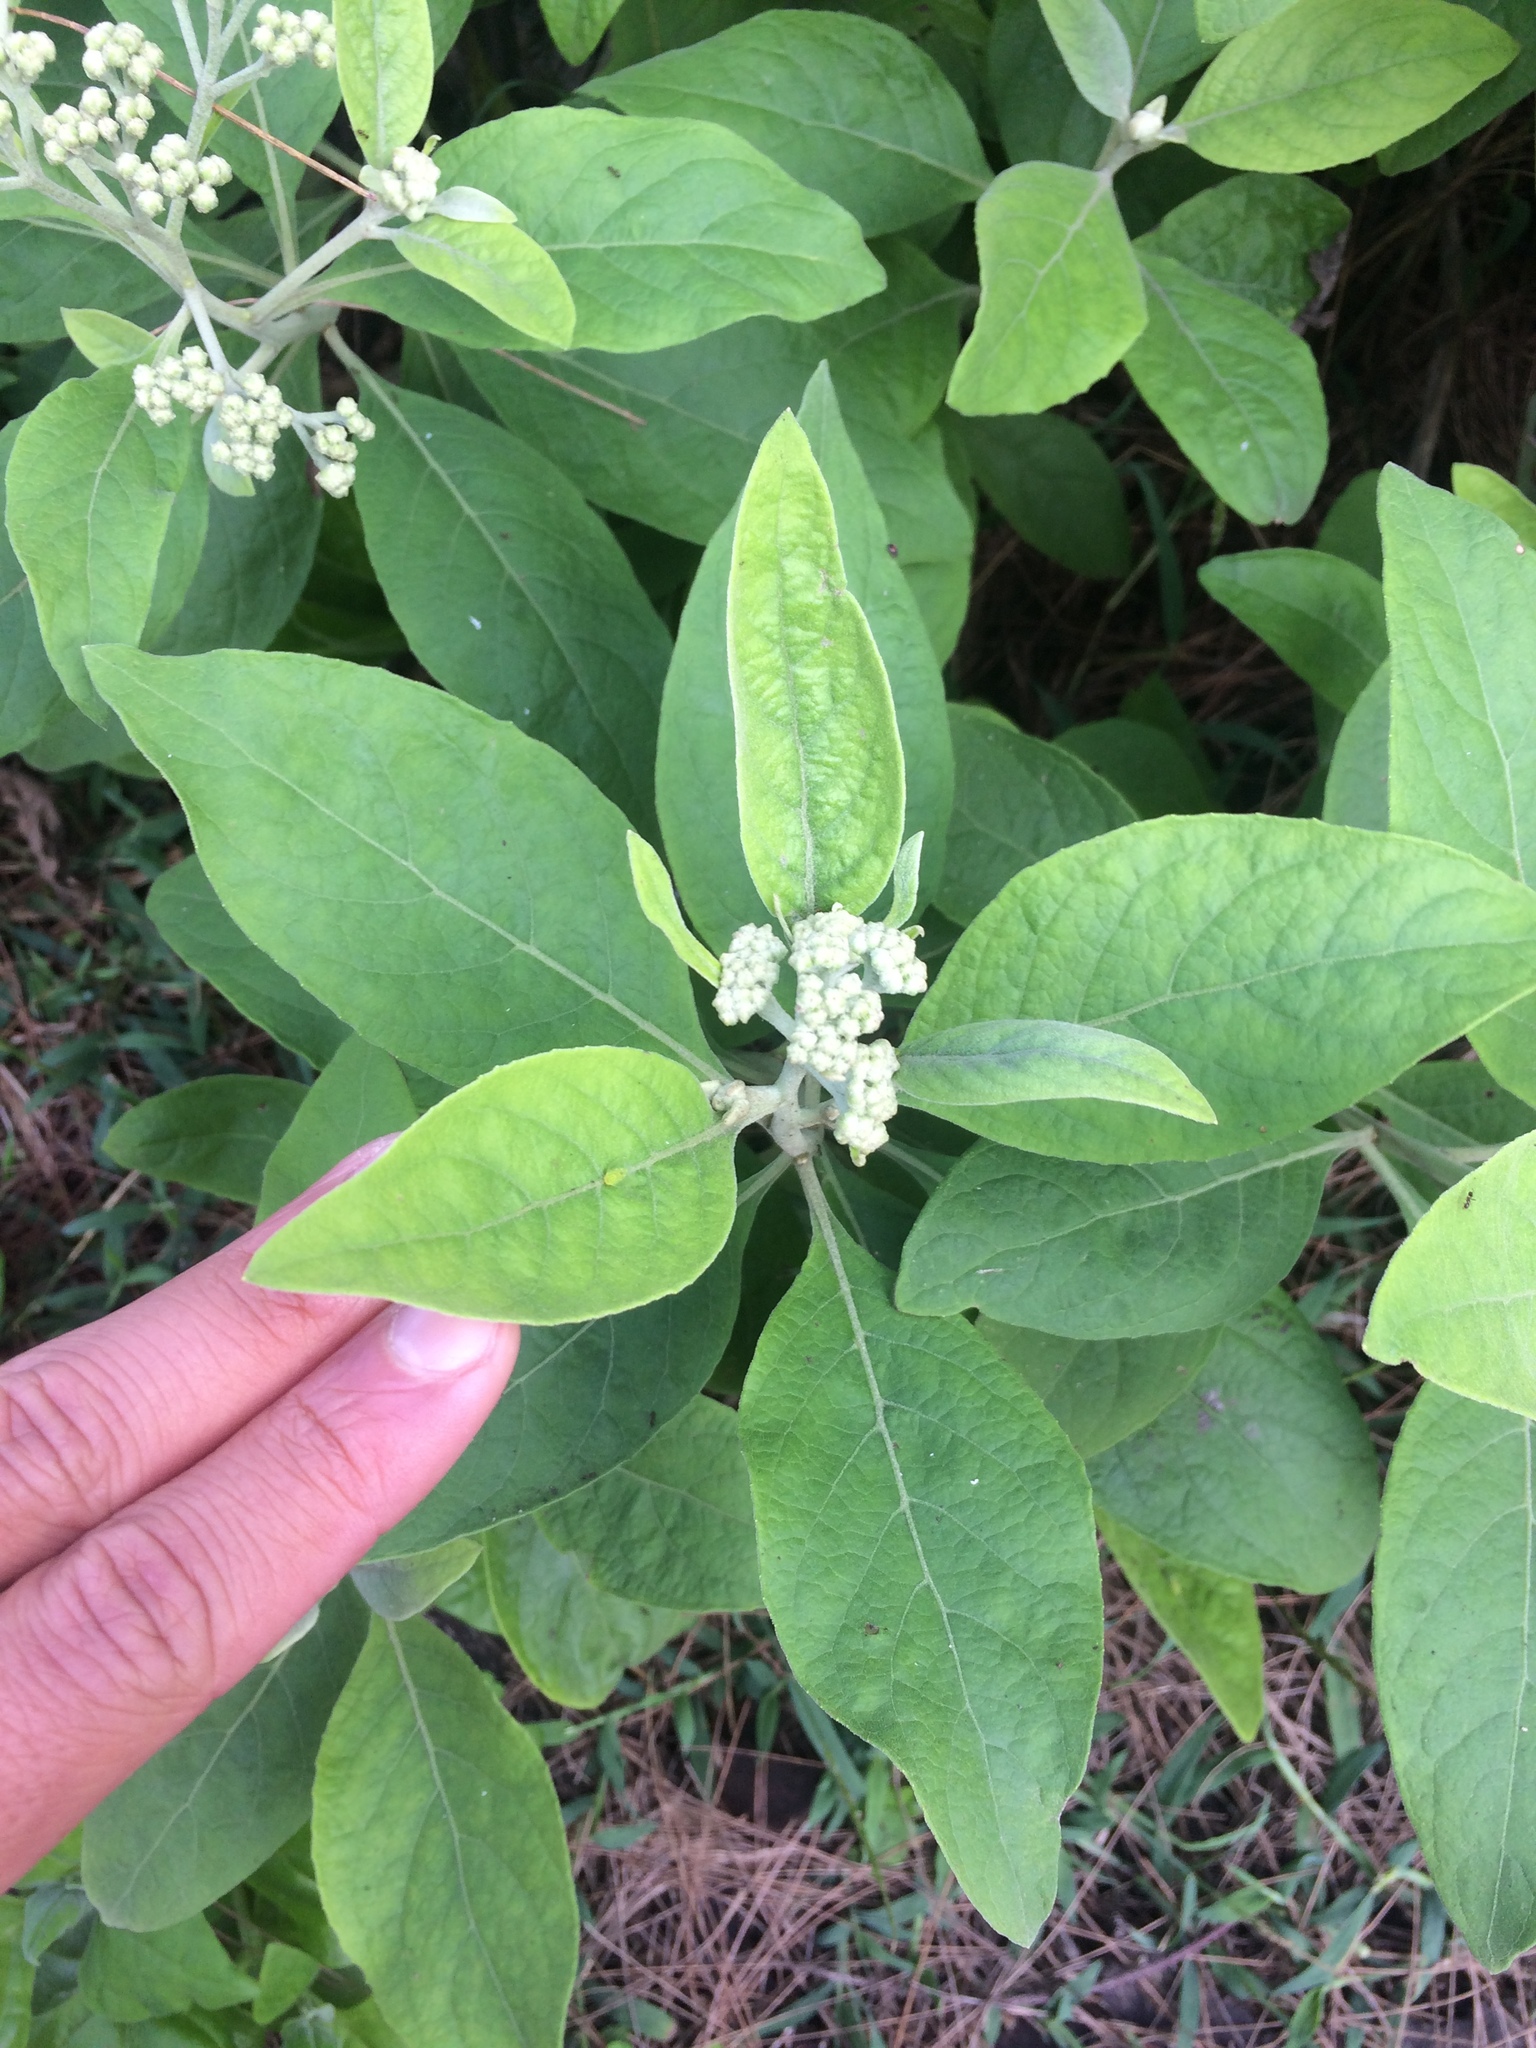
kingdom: Plantae
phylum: Tracheophyta
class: Magnoliopsida
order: Asterales
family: Asteraceae
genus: Pluchea
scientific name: Pluchea carolinensis
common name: Marsh fleabane
